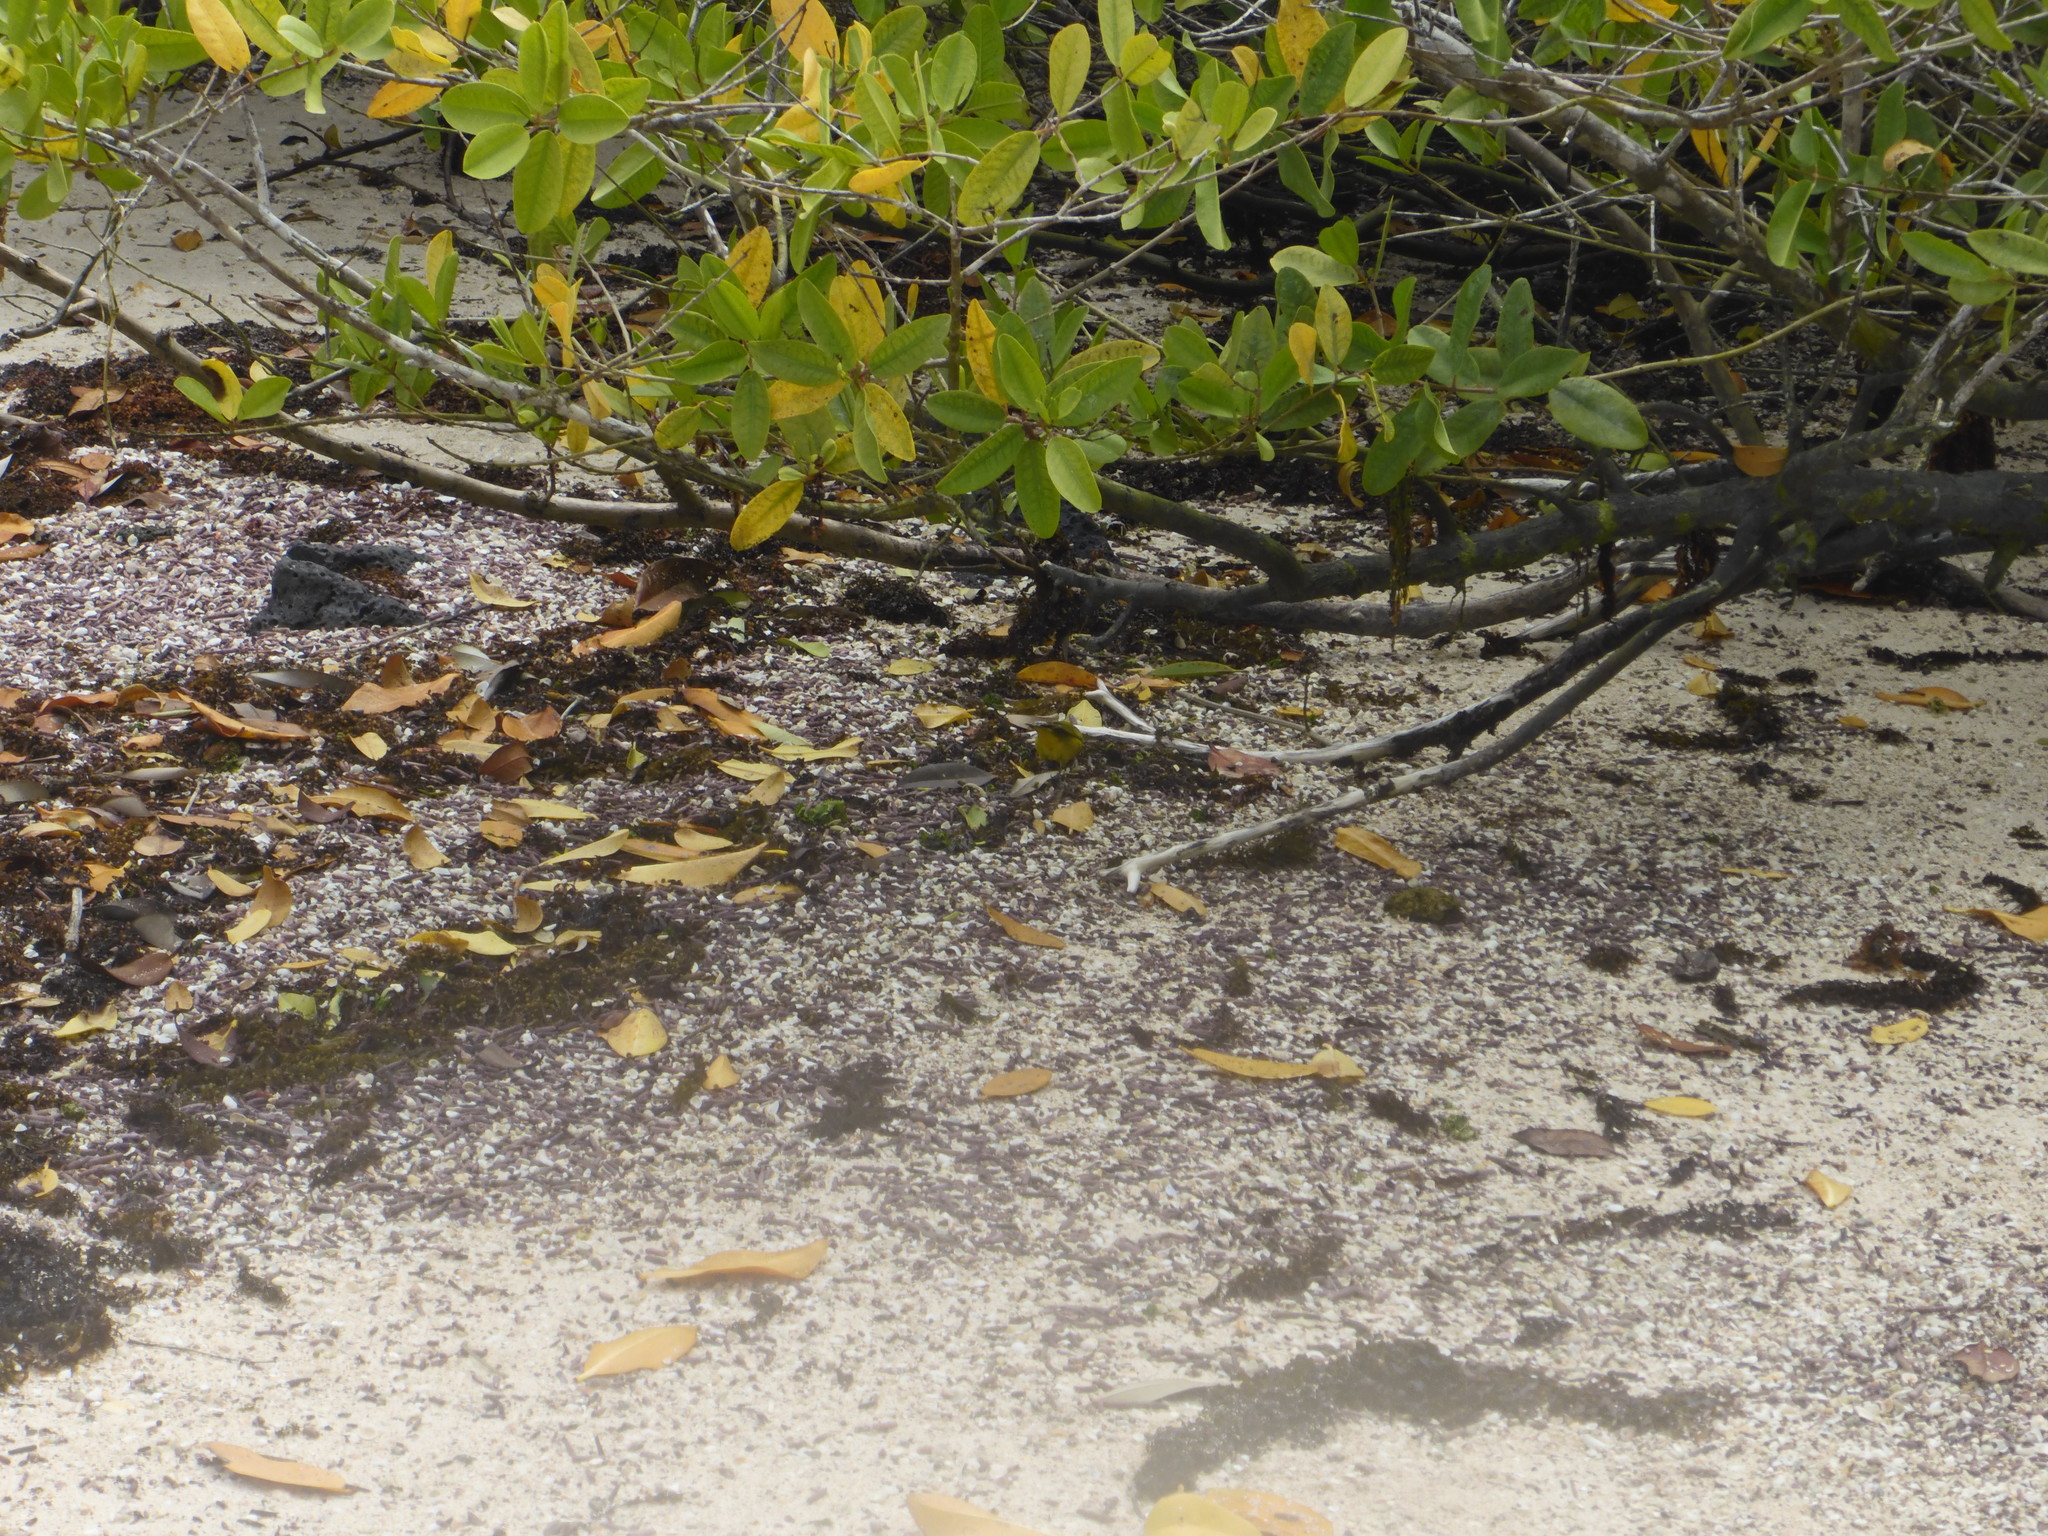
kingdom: Animalia
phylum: Chordata
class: Aves
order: Passeriformes
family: Parulidae
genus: Setophaga
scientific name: Setophaga petechia
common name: Yellow warbler
